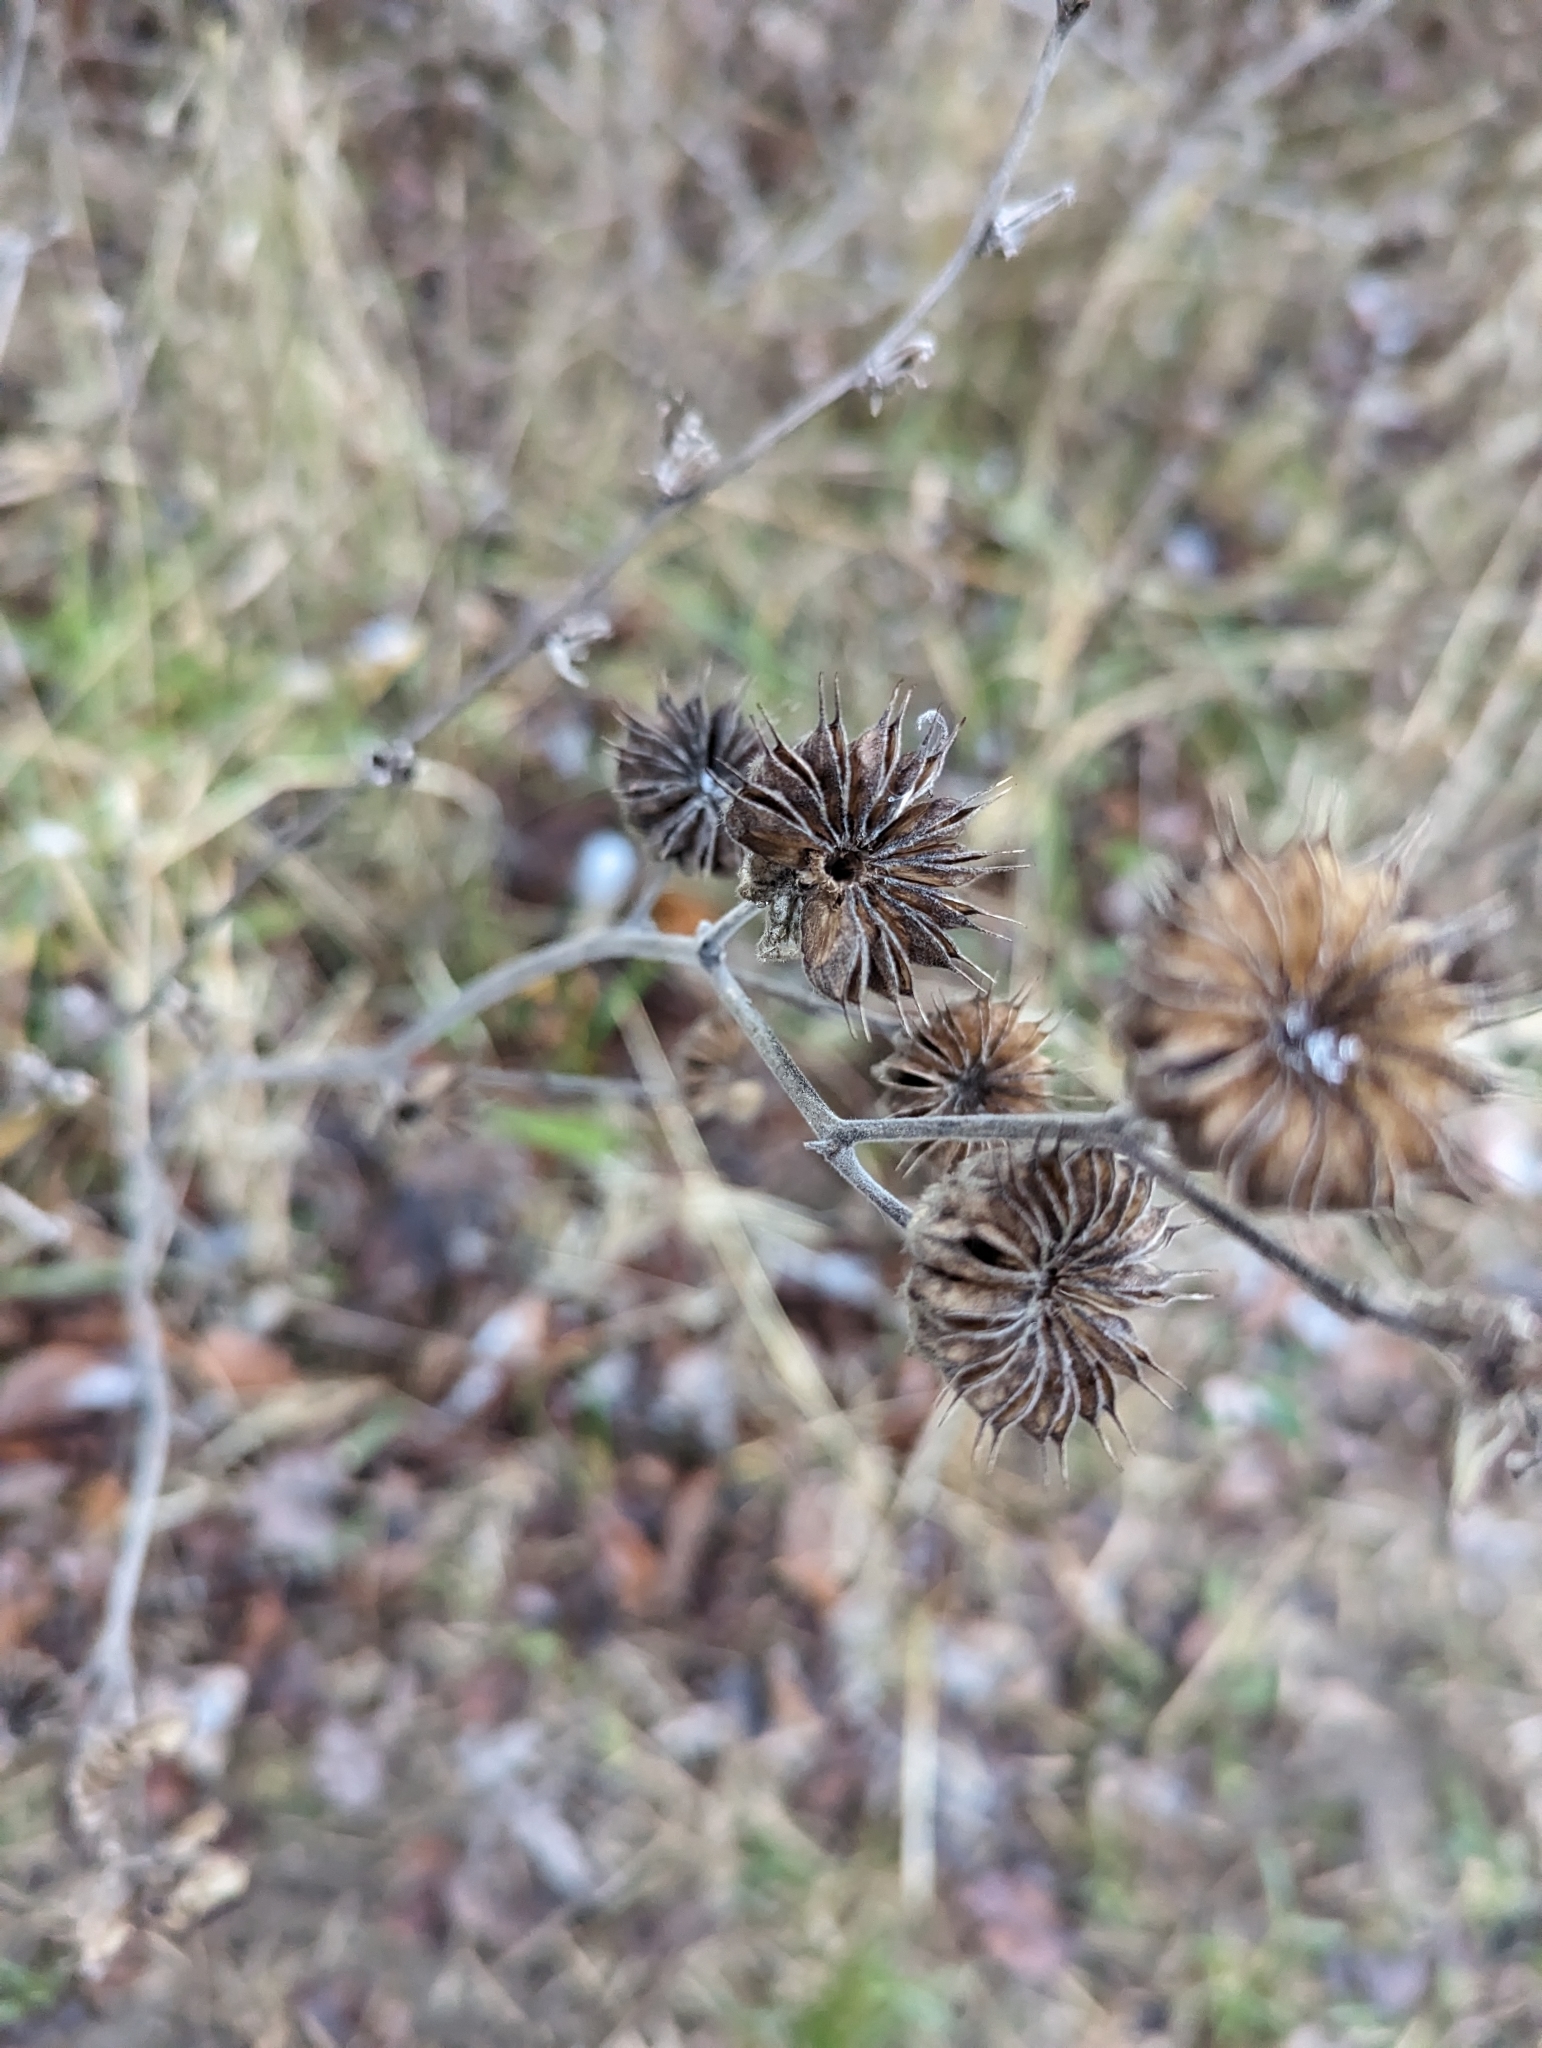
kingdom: Plantae
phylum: Tracheophyta
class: Magnoliopsida
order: Malvales
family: Malvaceae
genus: Abutilon
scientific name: Abutilon theophrasti
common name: Velvetleaf
